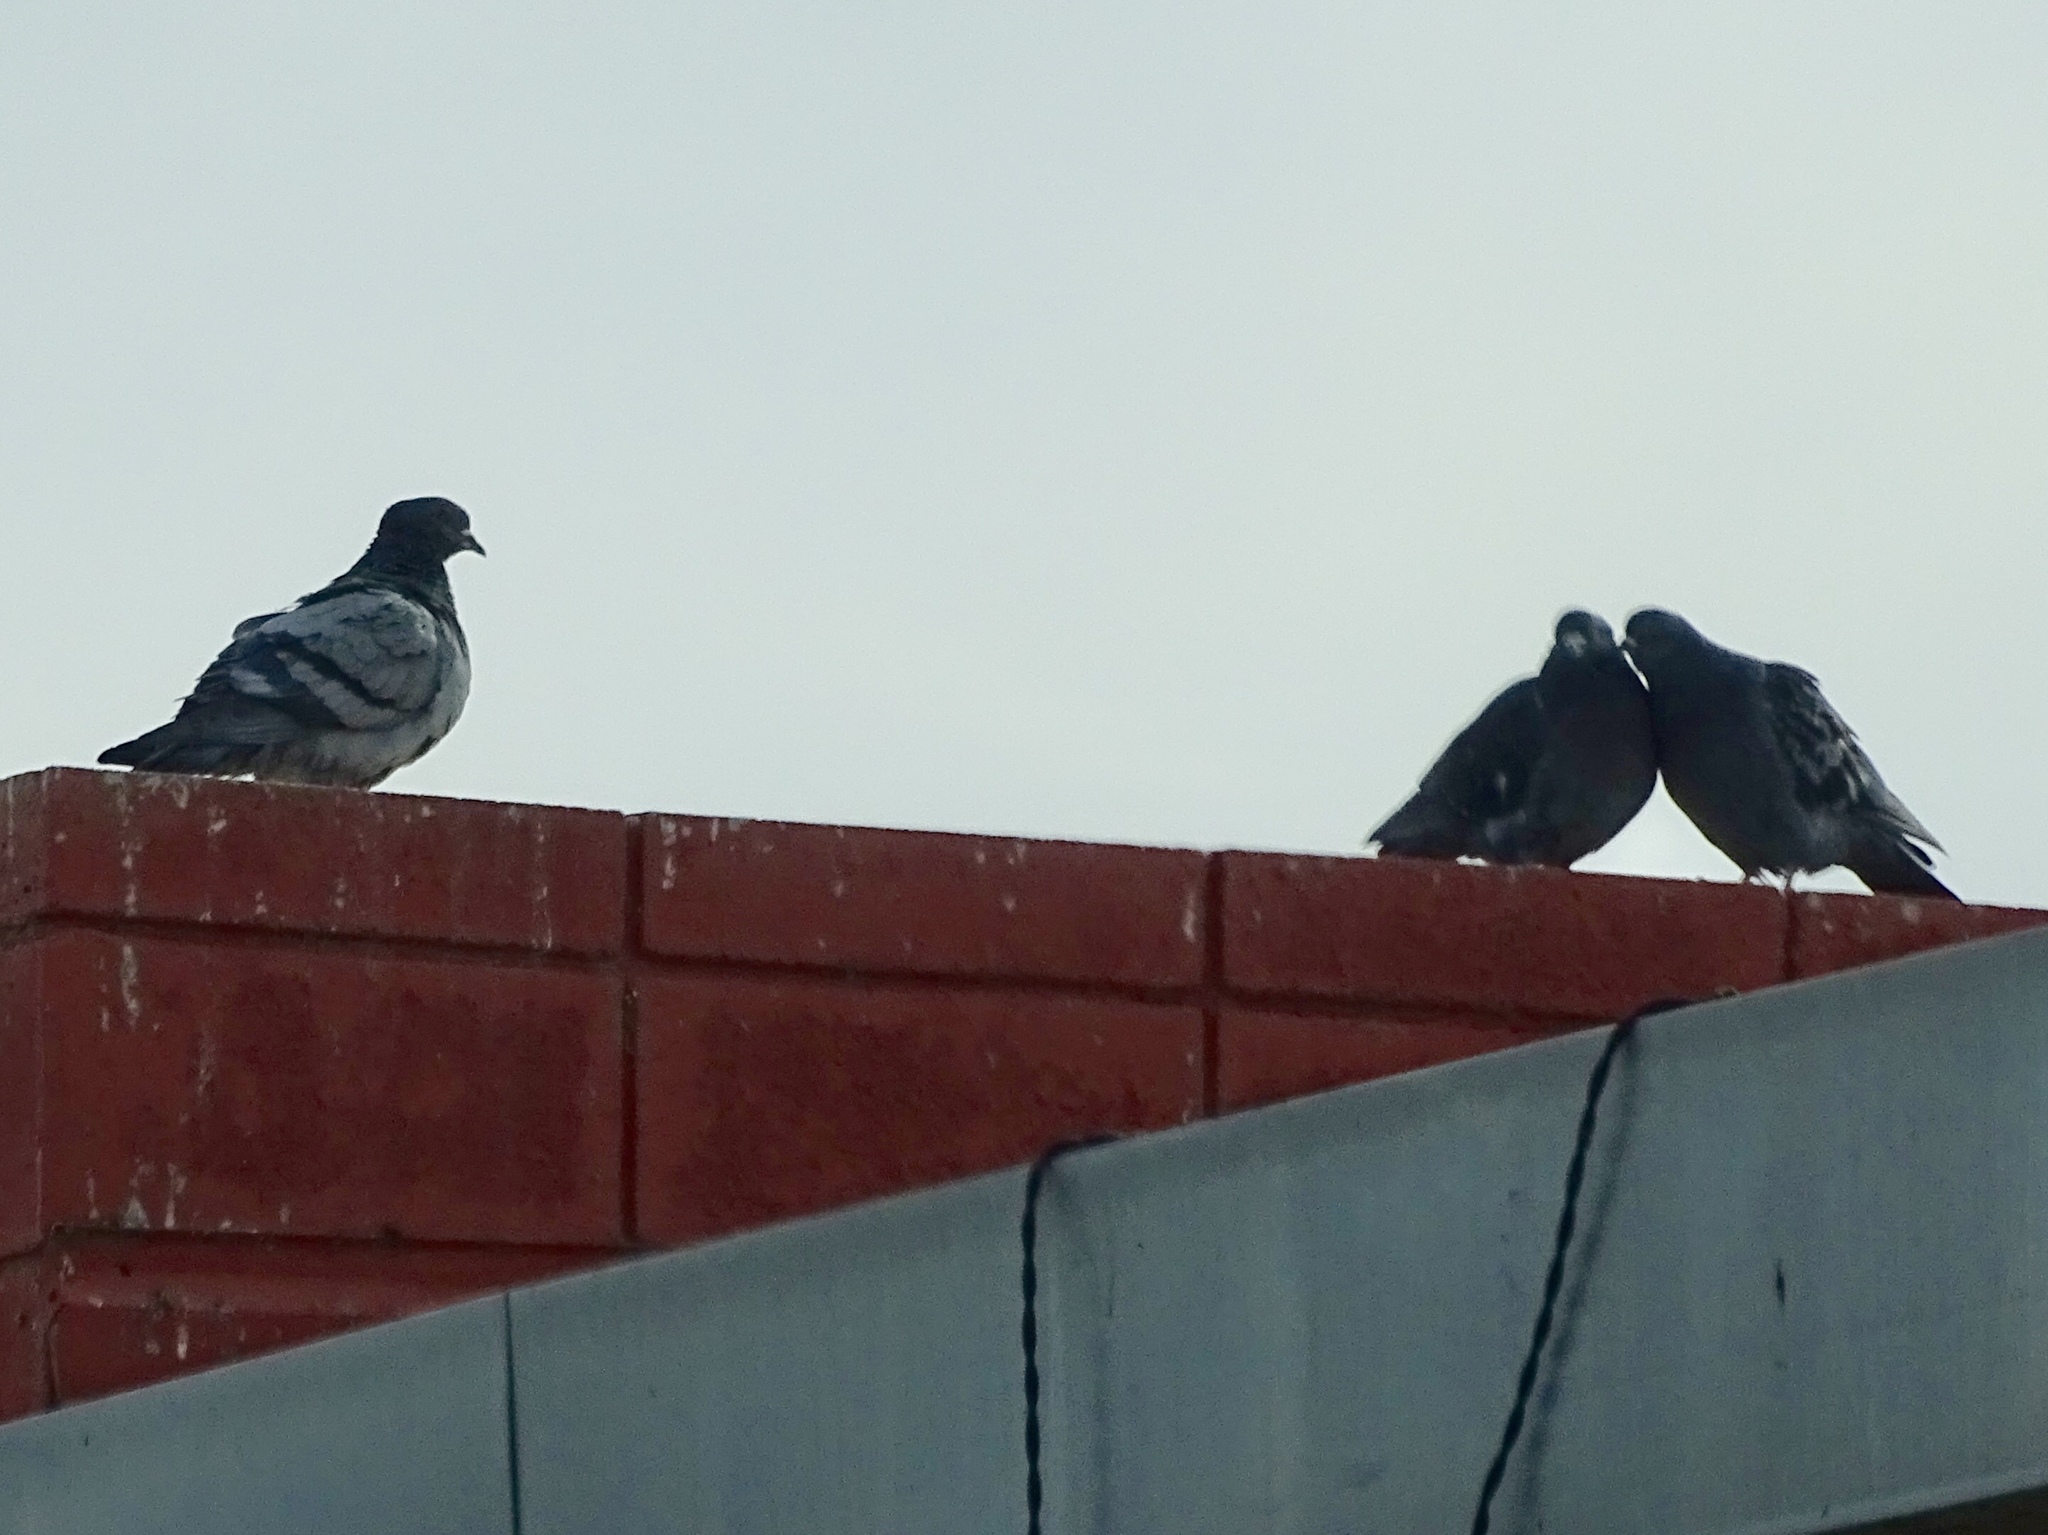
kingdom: Animalia
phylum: Chordata
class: Aves
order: Columbiformes
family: Columbidae
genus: Columba
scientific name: Columba livia
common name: Rock pigeon
